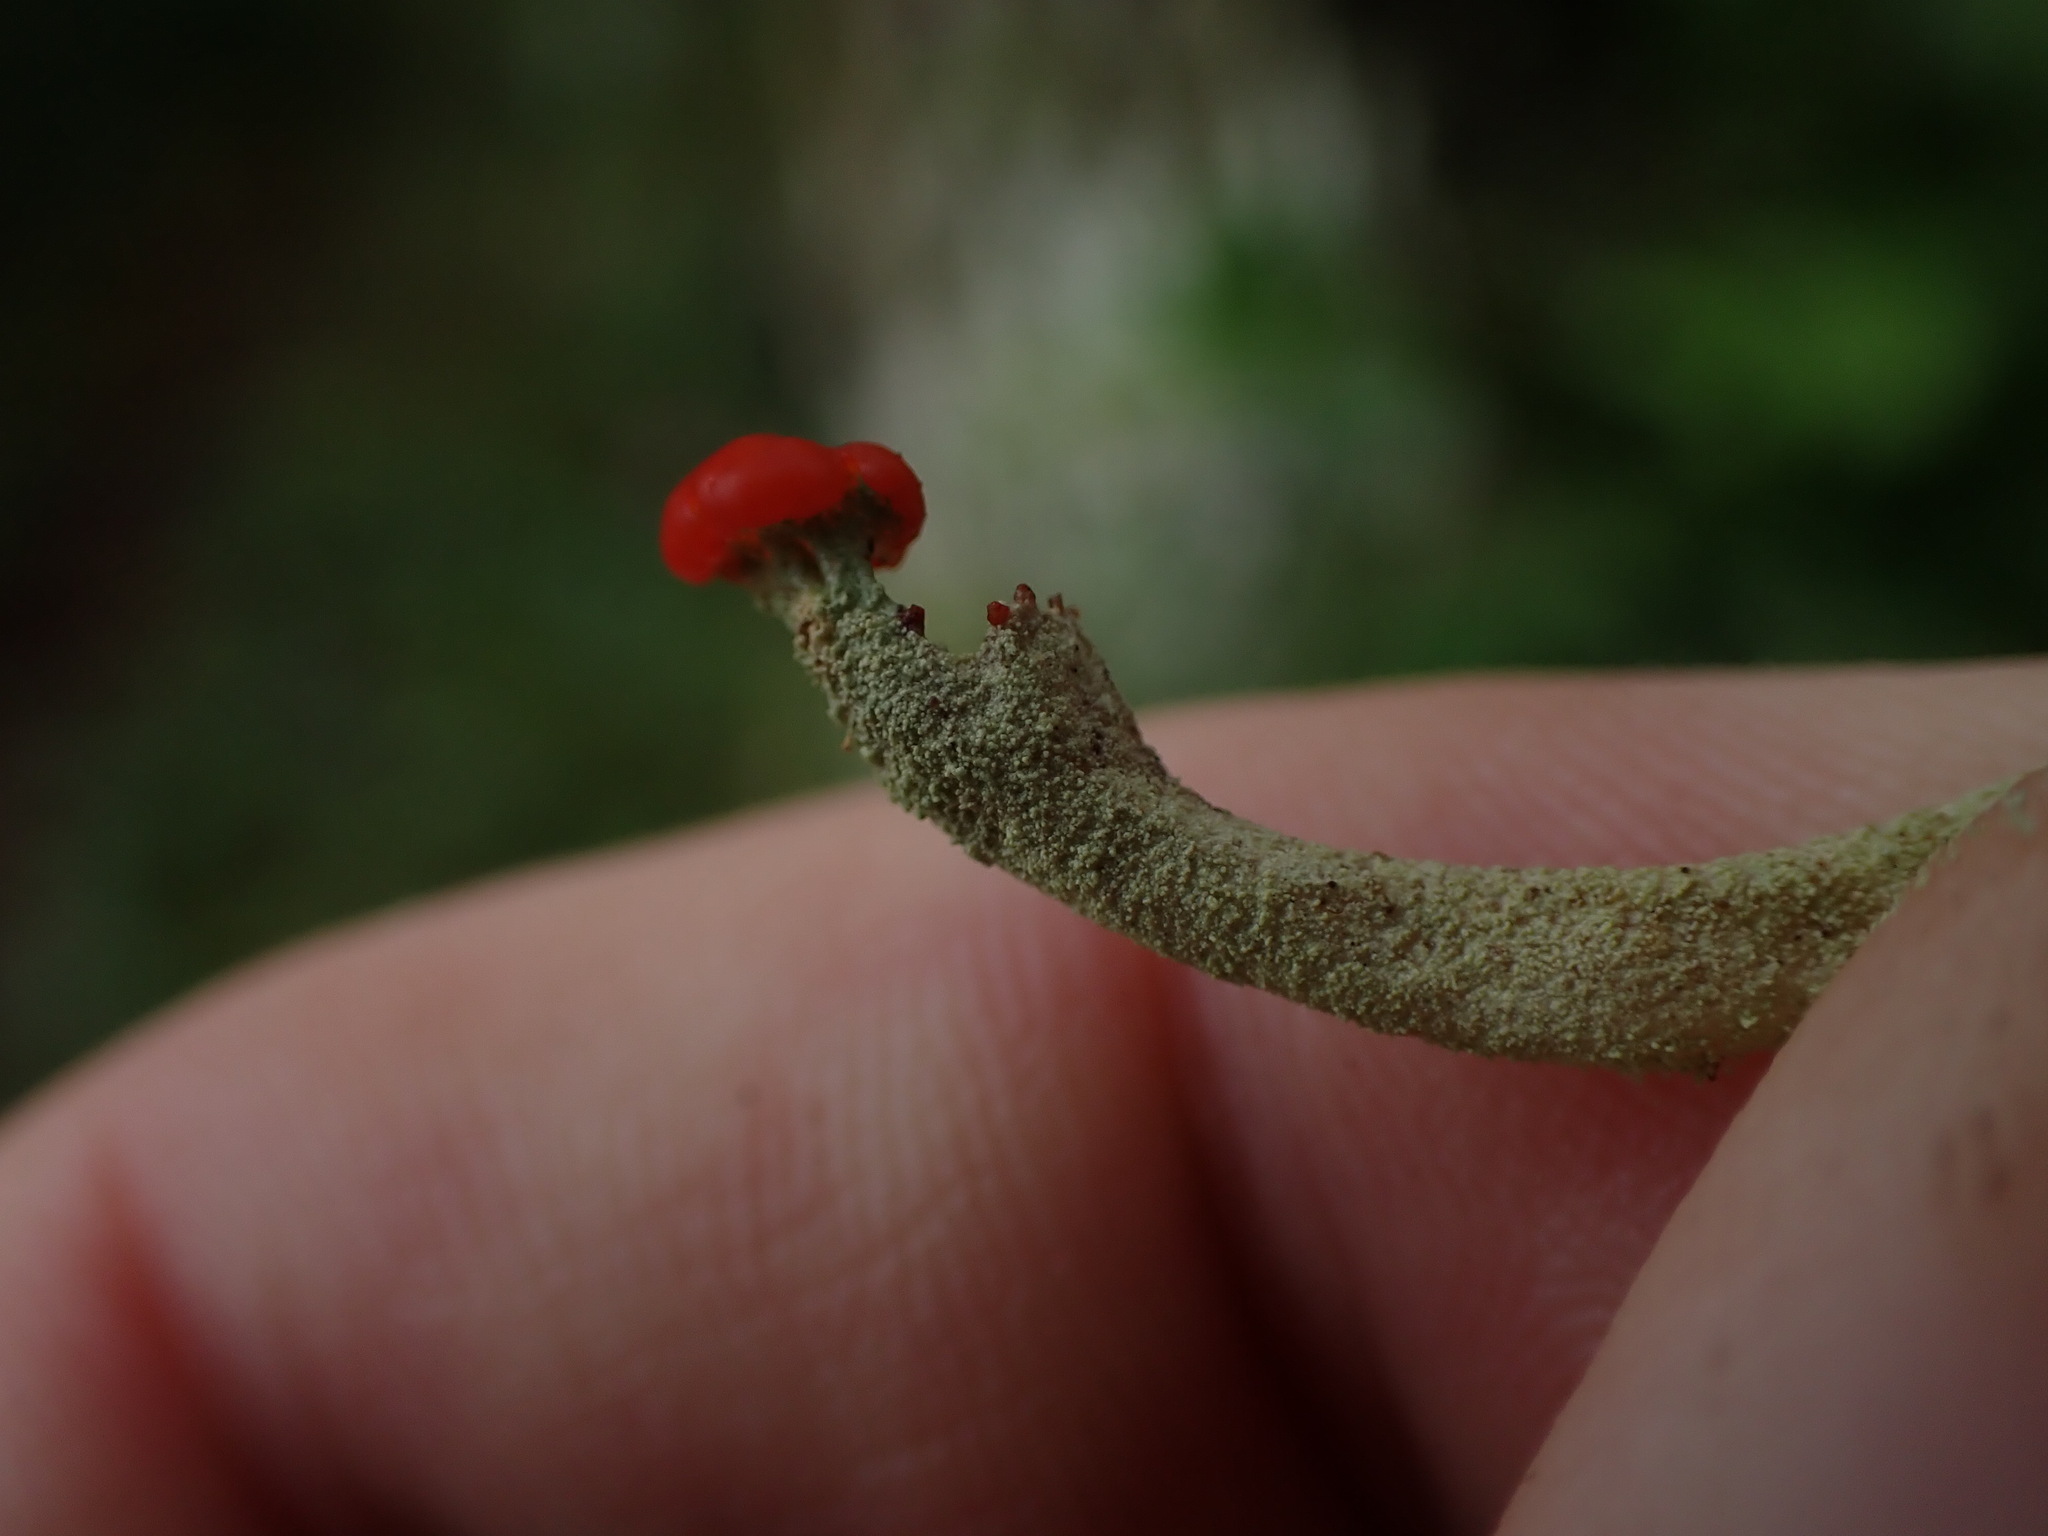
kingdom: Fungi
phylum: Ascomycota
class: Lecanoromycetes
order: Lecanorales
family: Cladoniaceae
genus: Cladonia
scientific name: Cladonia transcendens
